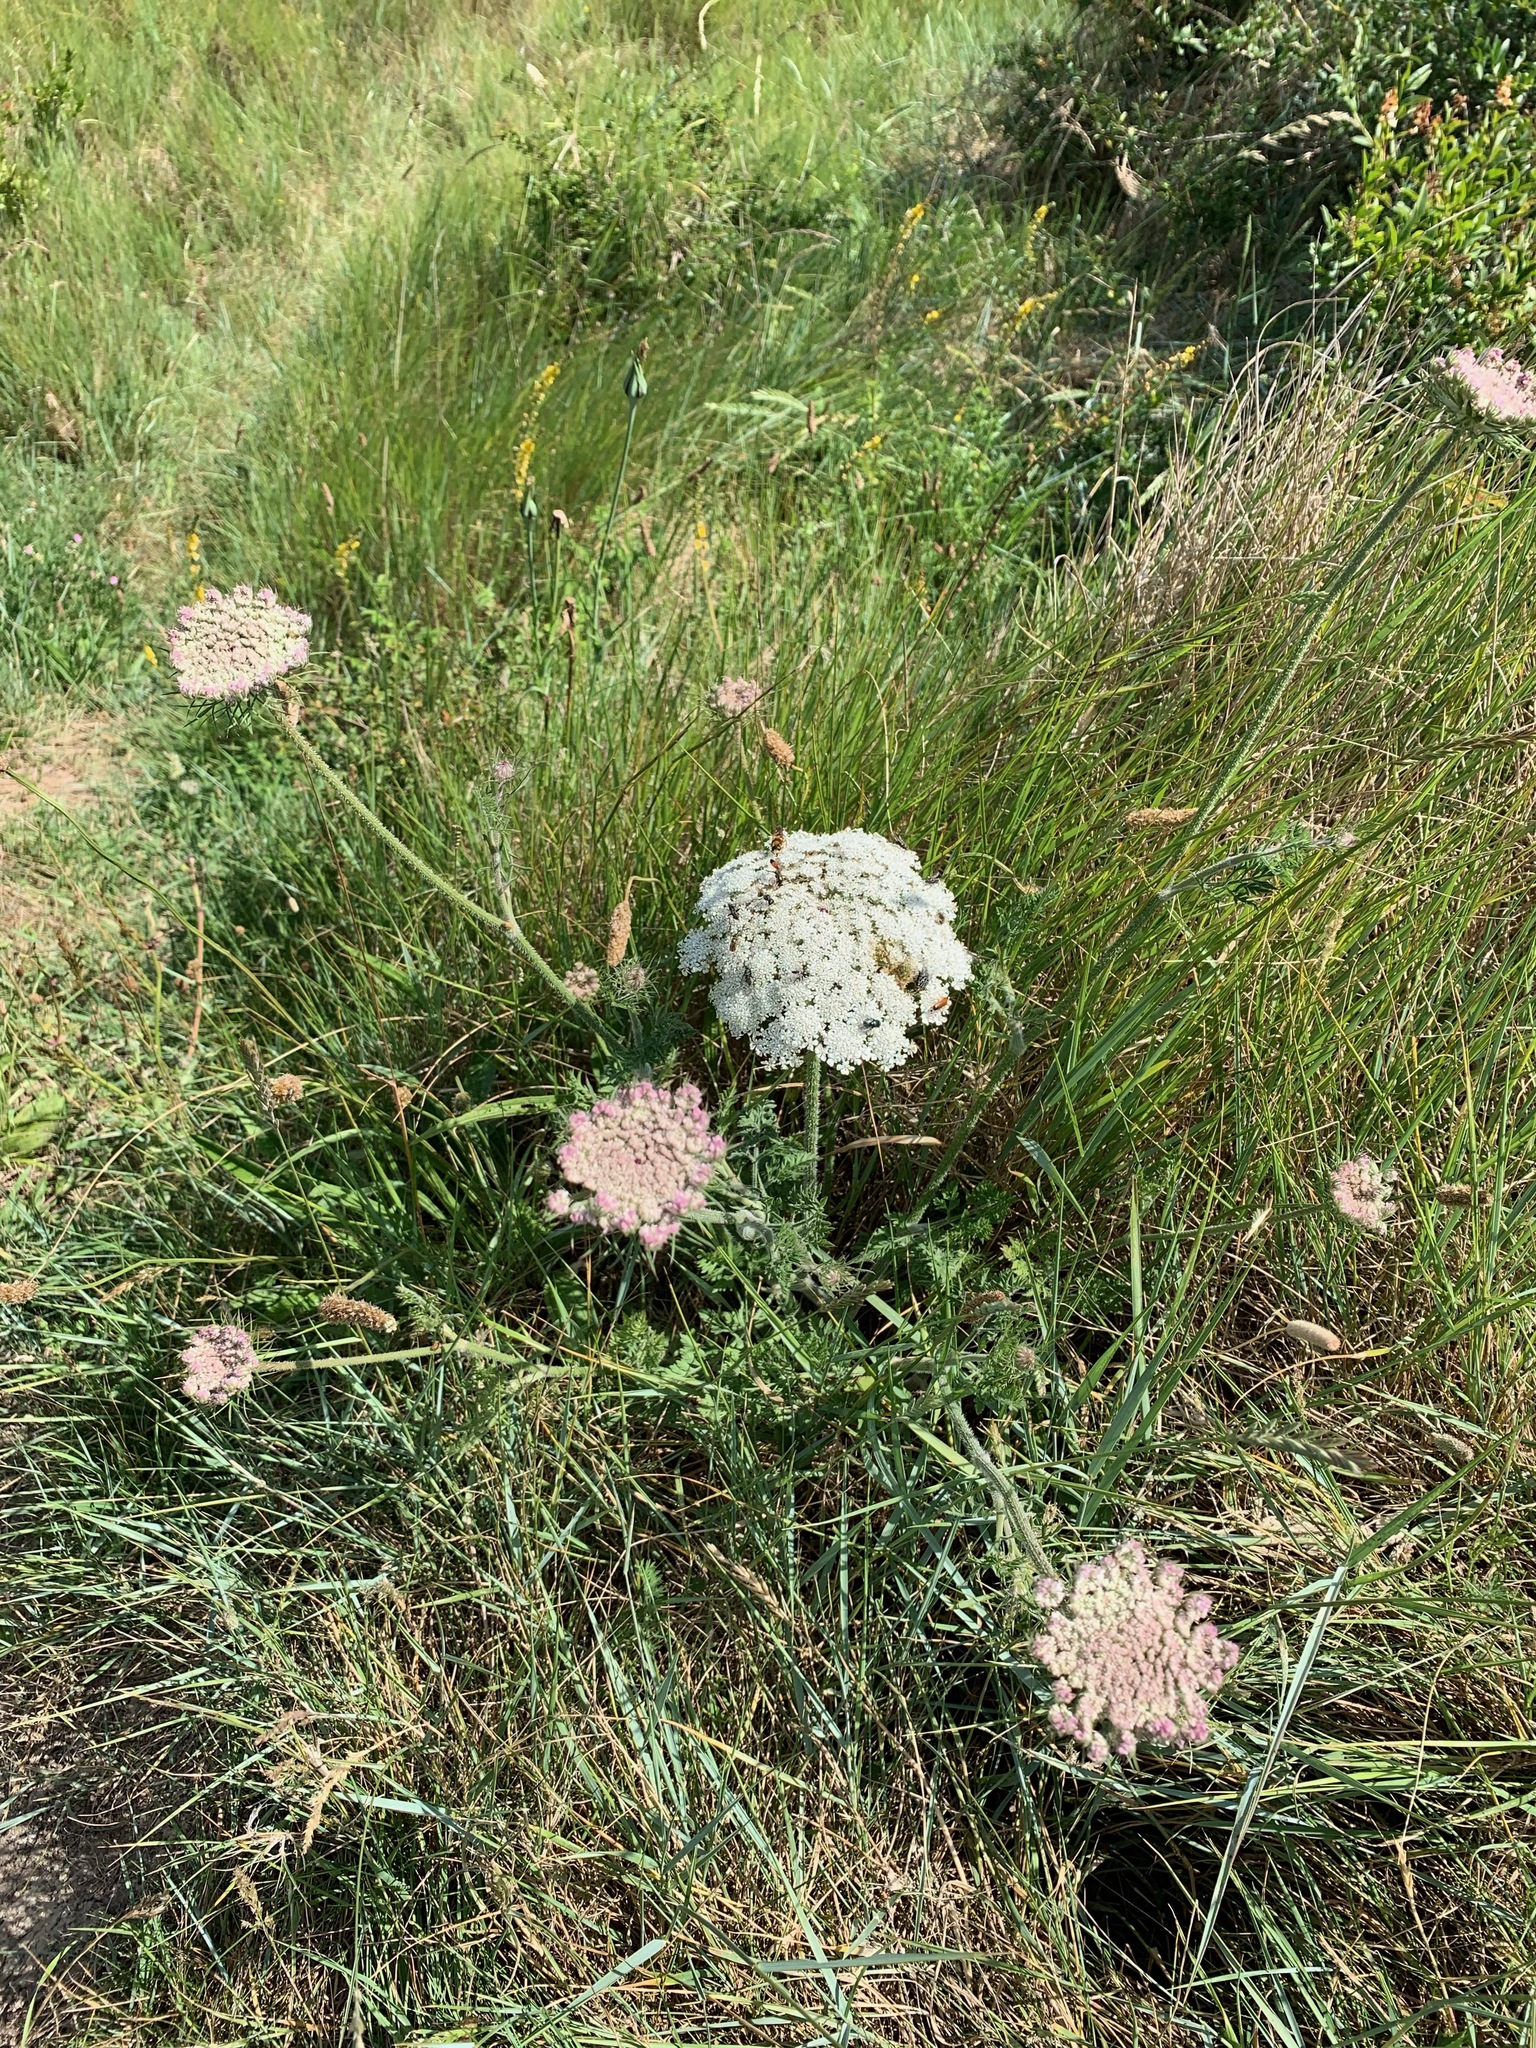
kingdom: Plantae
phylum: Tracheophyta
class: Magnoliopsida
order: Apiales
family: Apiaceae
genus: Daucus
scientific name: Daucus carota
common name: Wild carrot
